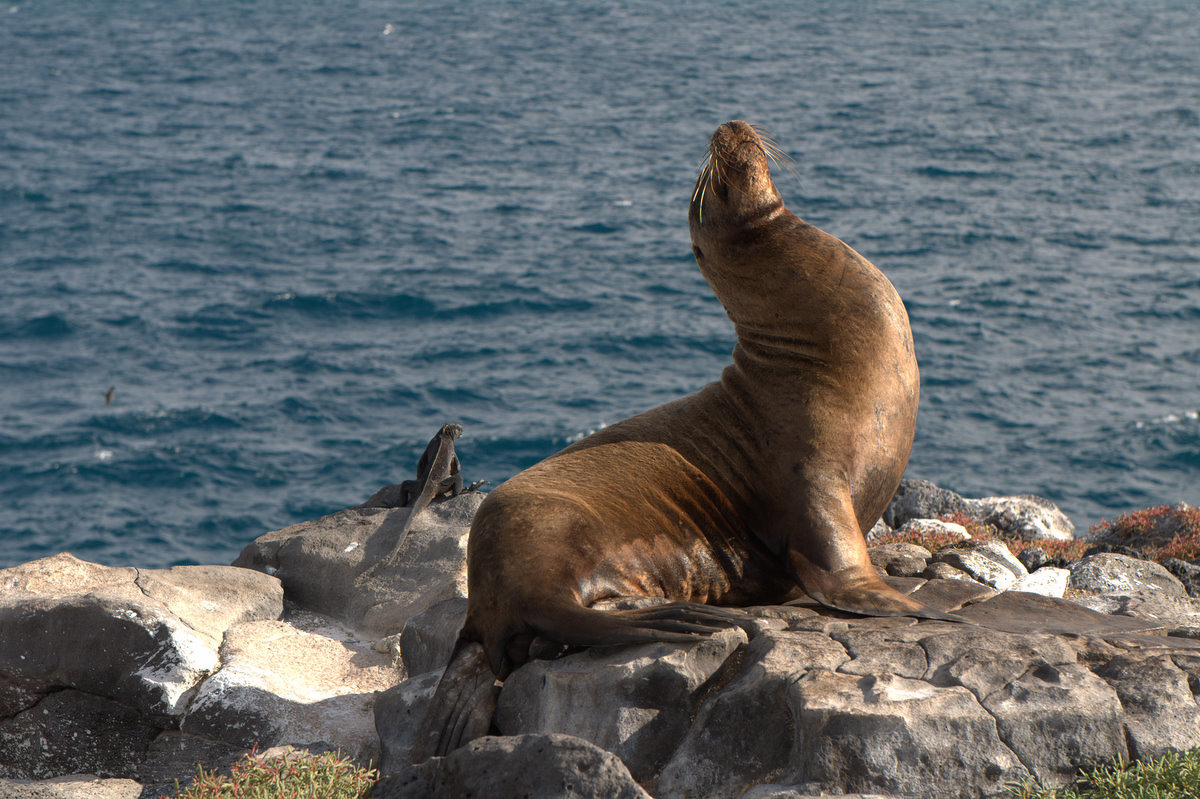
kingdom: Animalia
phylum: Chordata
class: Mammalia
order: Carnivora
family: Otariidae
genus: Zalophus
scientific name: Zalophus wollebaeki
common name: Galapagos sea lion
